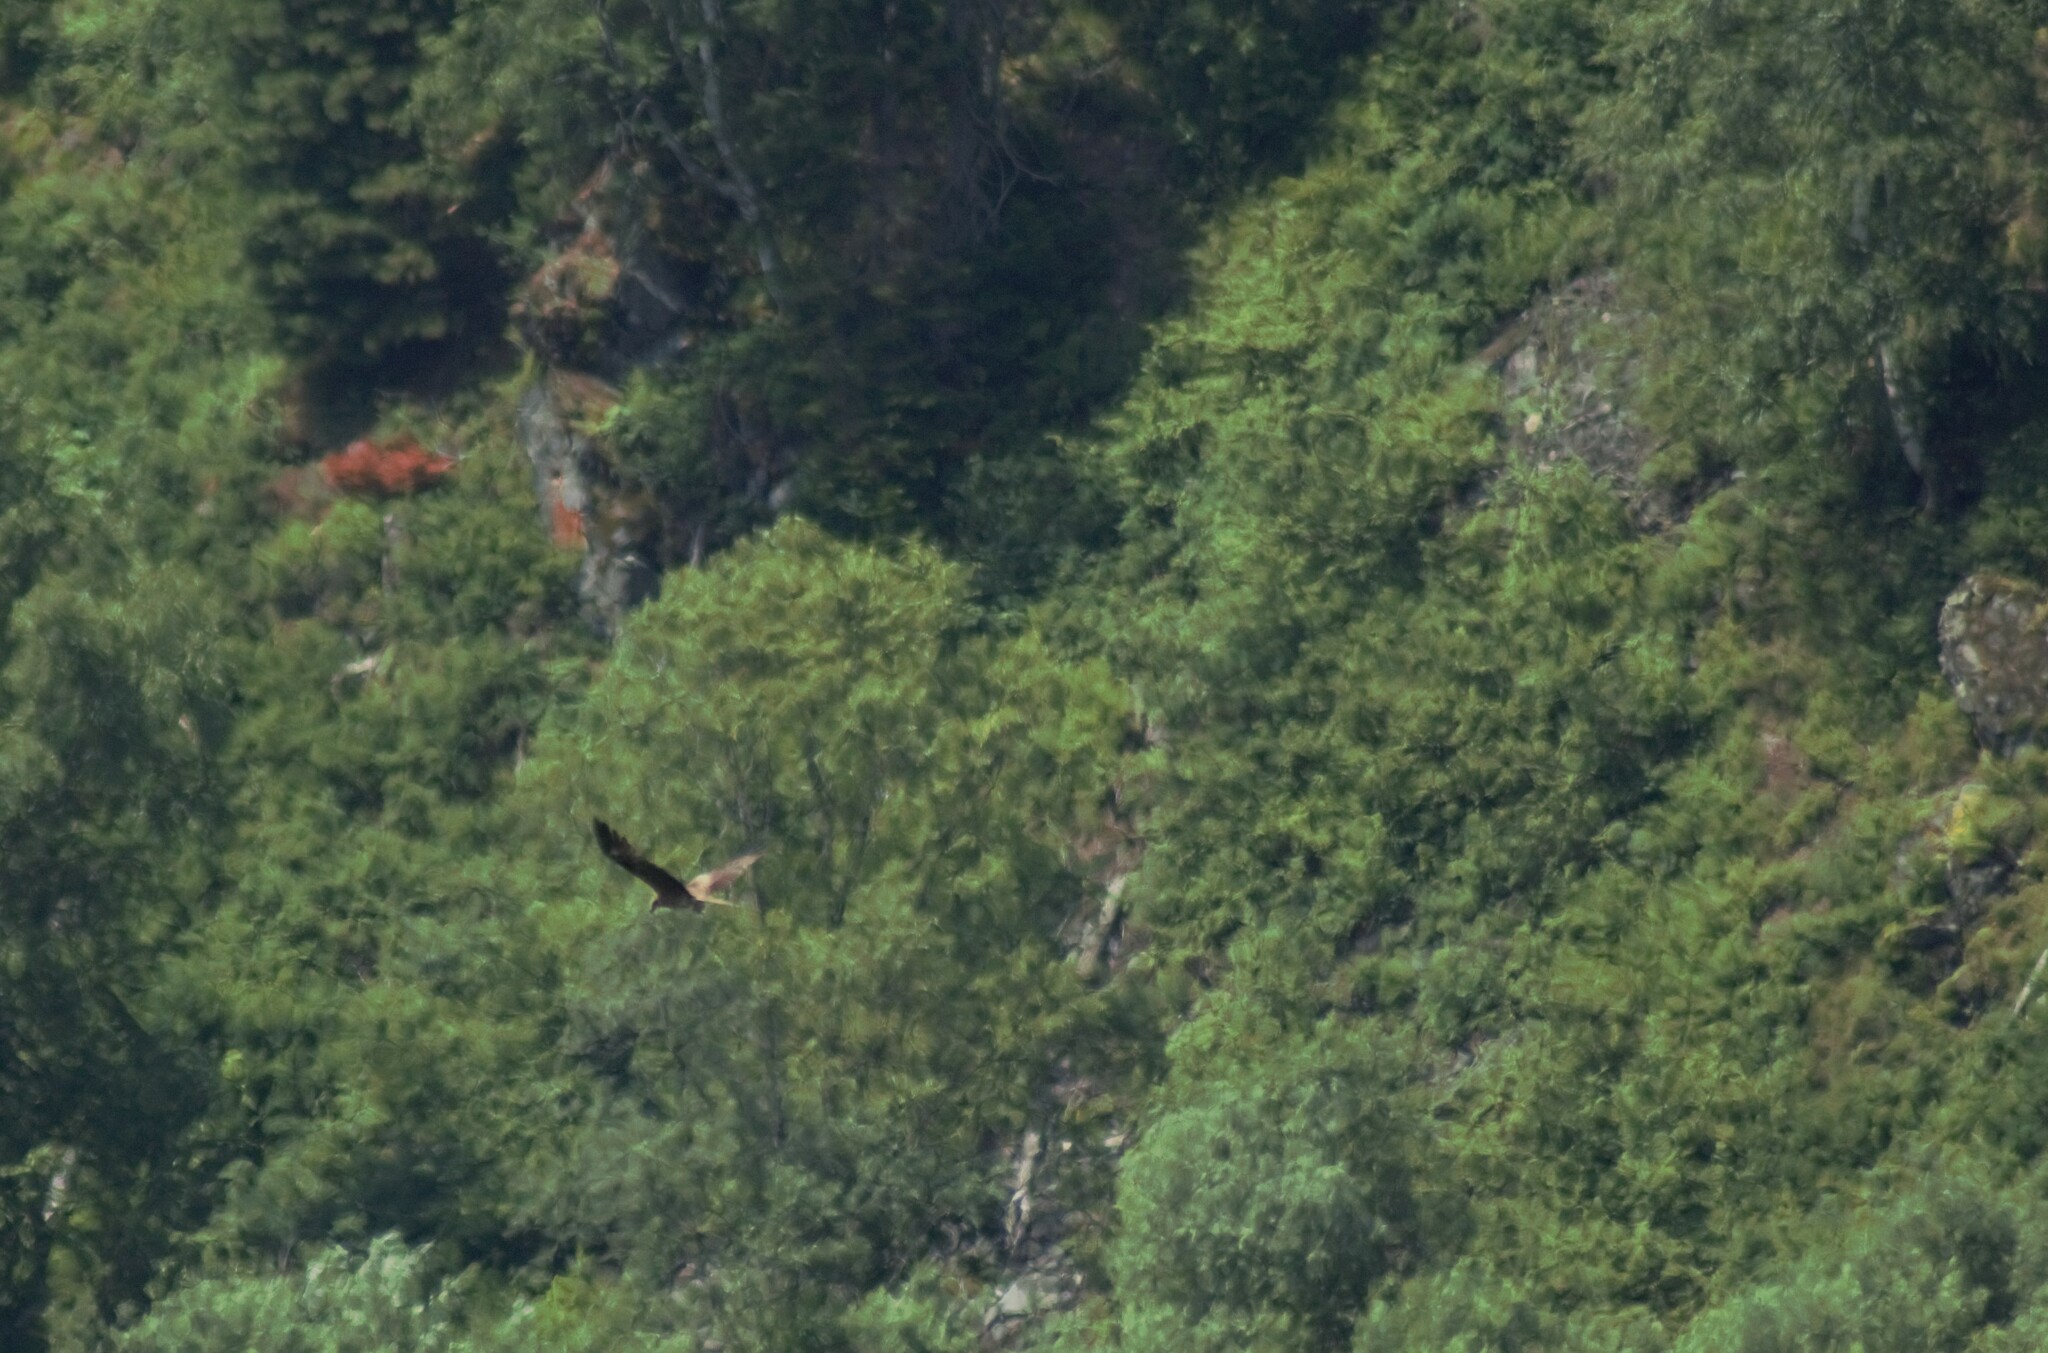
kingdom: Animalia
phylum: Chordata
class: Aves
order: Accipitriformes
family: Accipitridae
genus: Milvus
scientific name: Milvus migrans
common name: Black kite
